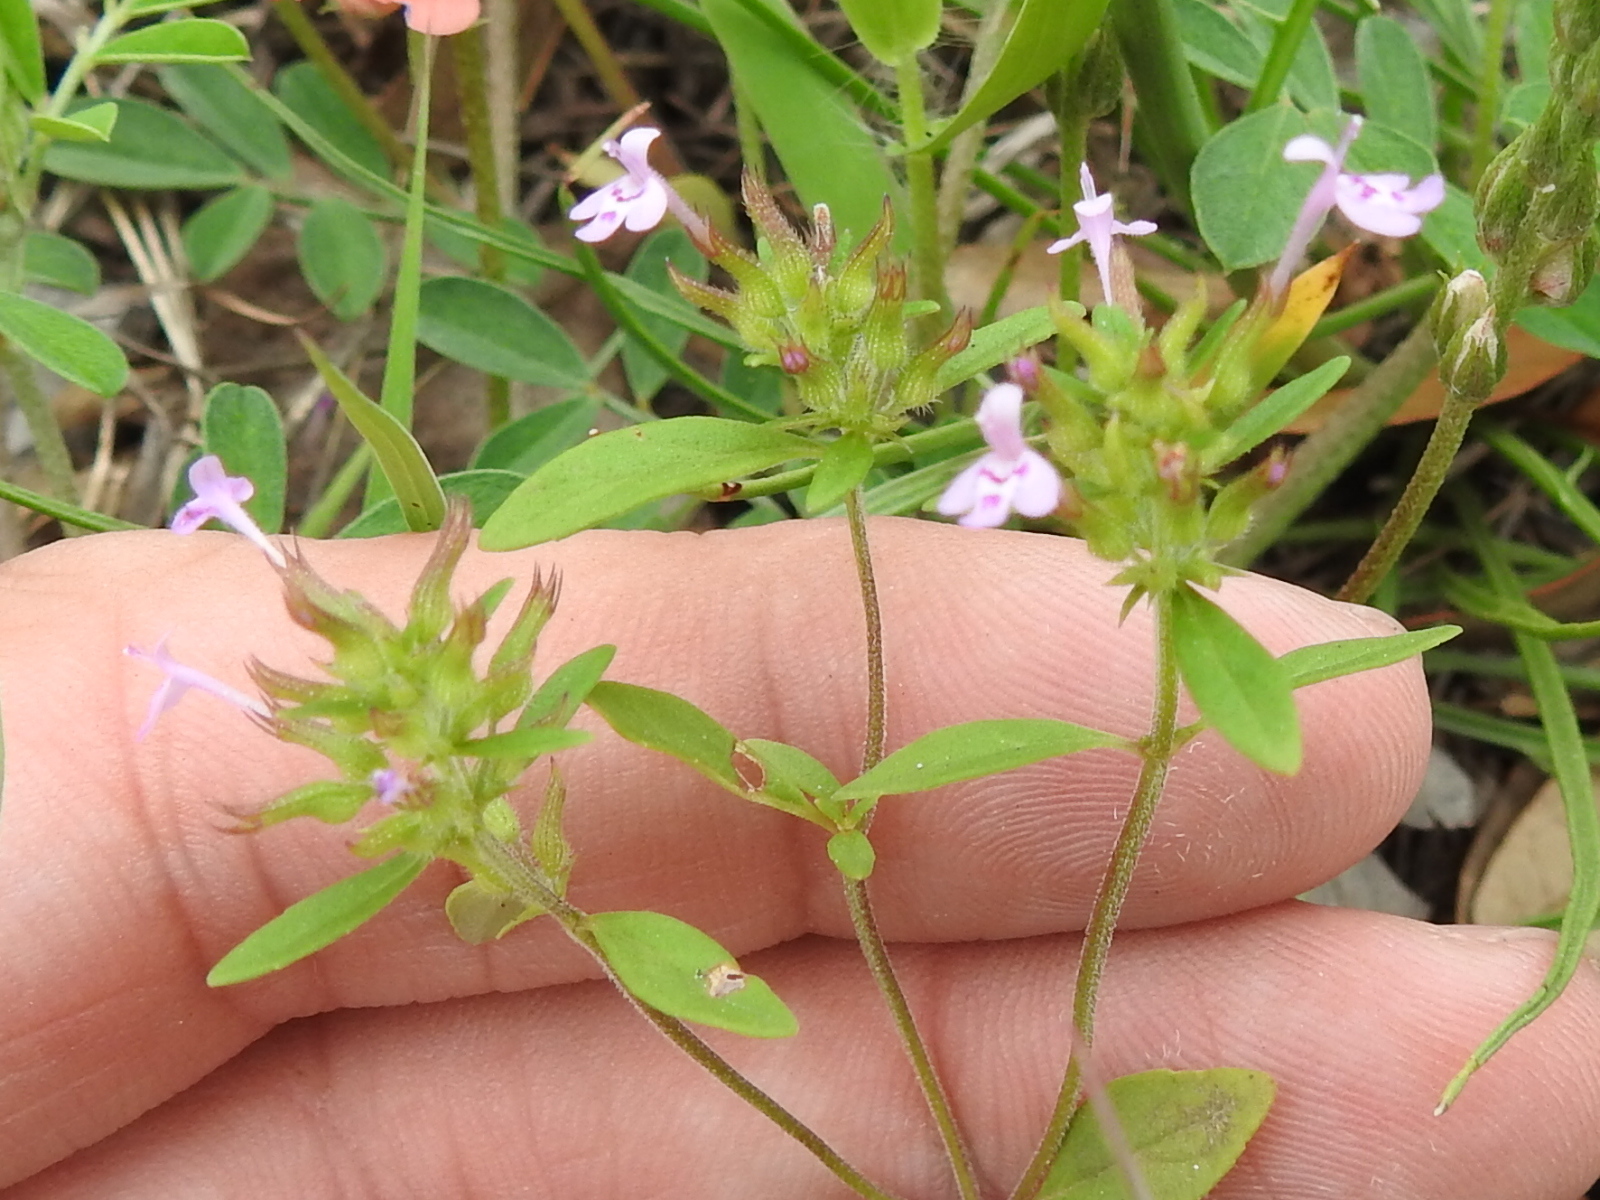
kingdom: Plantae
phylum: Tracheophyta
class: Magnoliopsida
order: Lamiales
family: Lamiaceae
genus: Hedeoma
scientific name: Hedeoma acinoides
